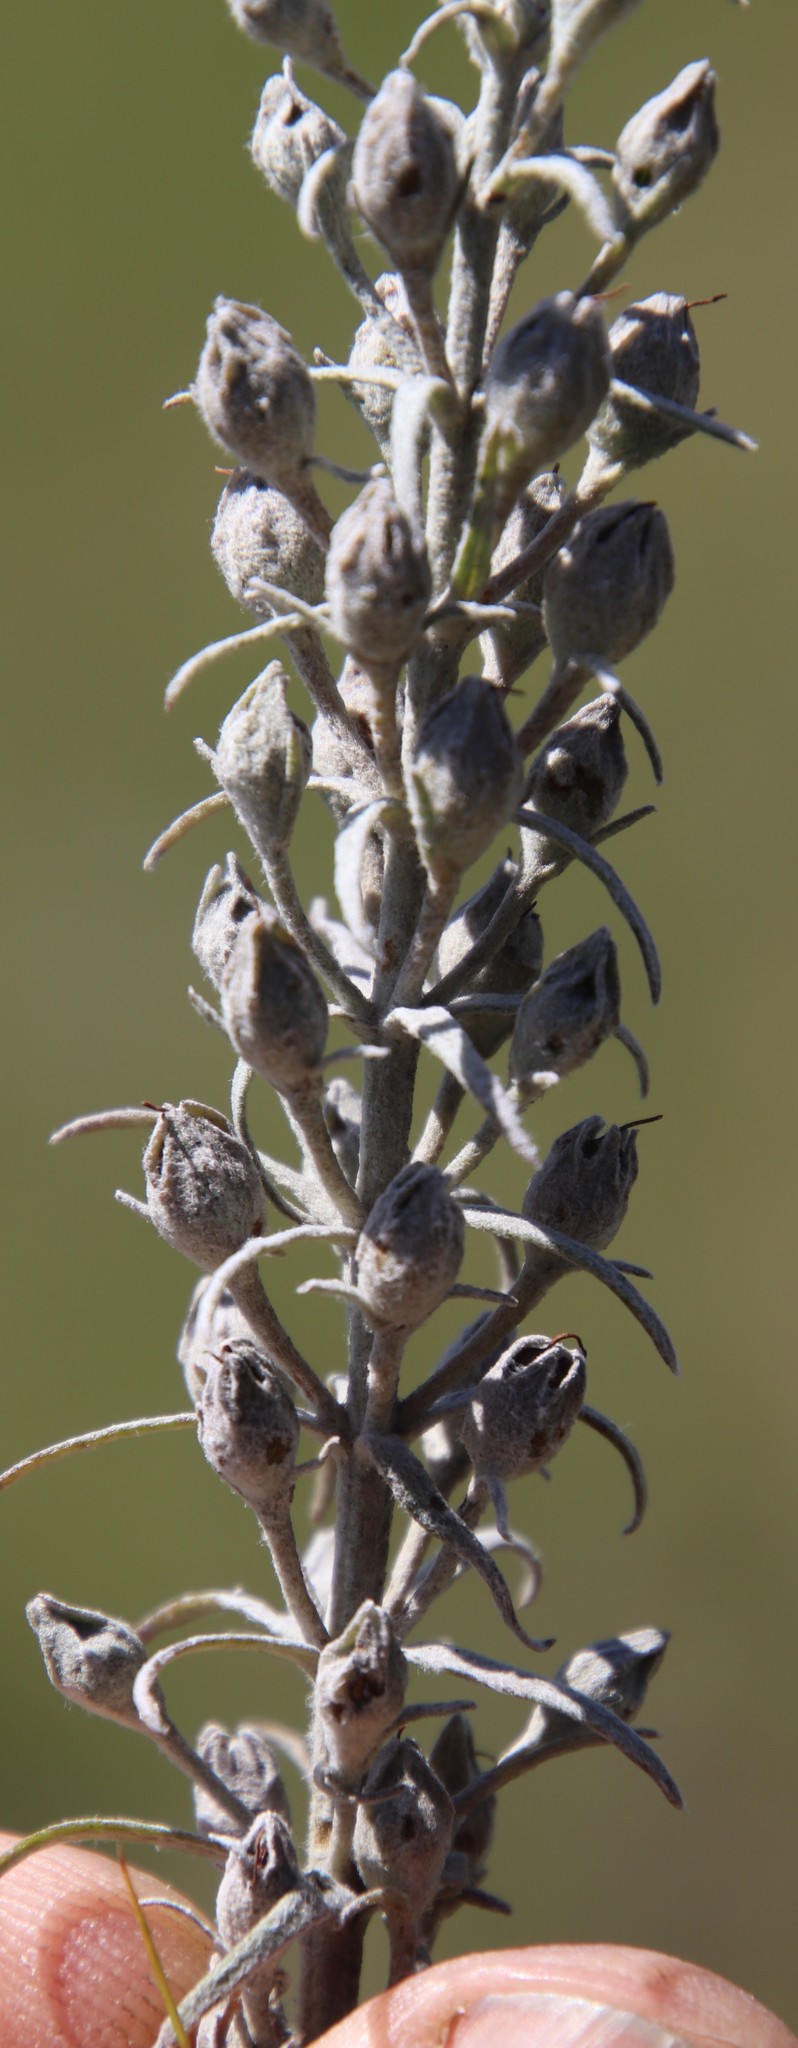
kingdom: Plantae
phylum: Tracheophyta
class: Magnoliopsida
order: Lamiales
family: Orobanchaceae
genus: Sopubia
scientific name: Sopubia cana
